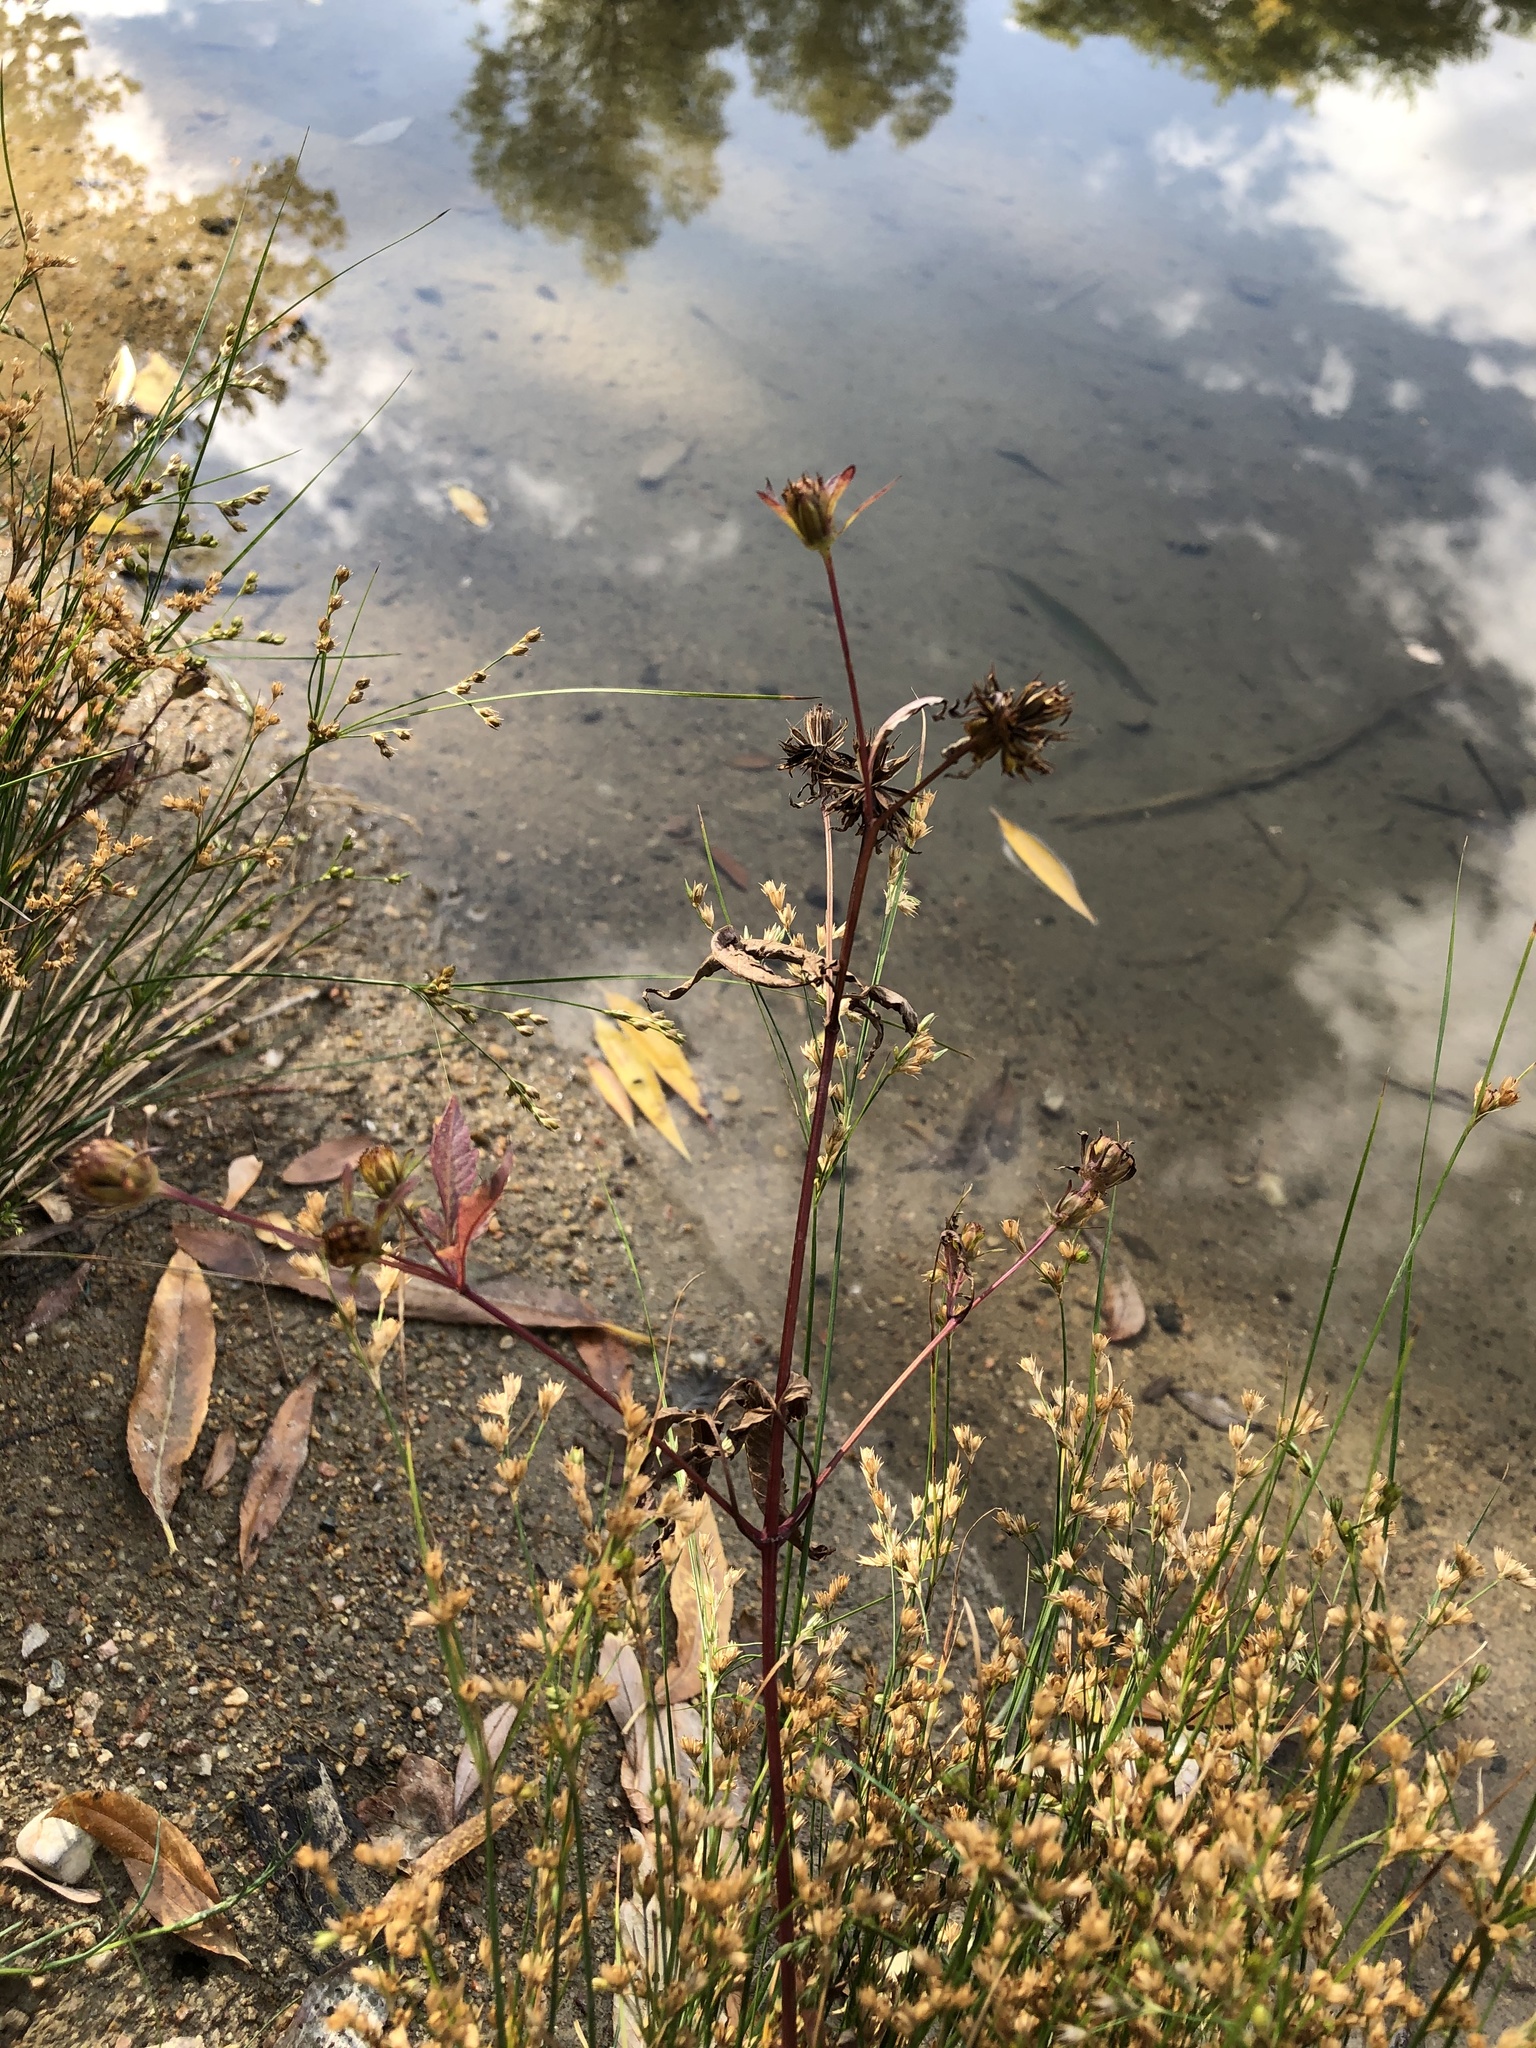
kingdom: Plantae
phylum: Tracheophyta
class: Magnoliopsida
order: Asterales
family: Asteraceae
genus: Bidens
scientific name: Bidens frondosa
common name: Beggarticks
